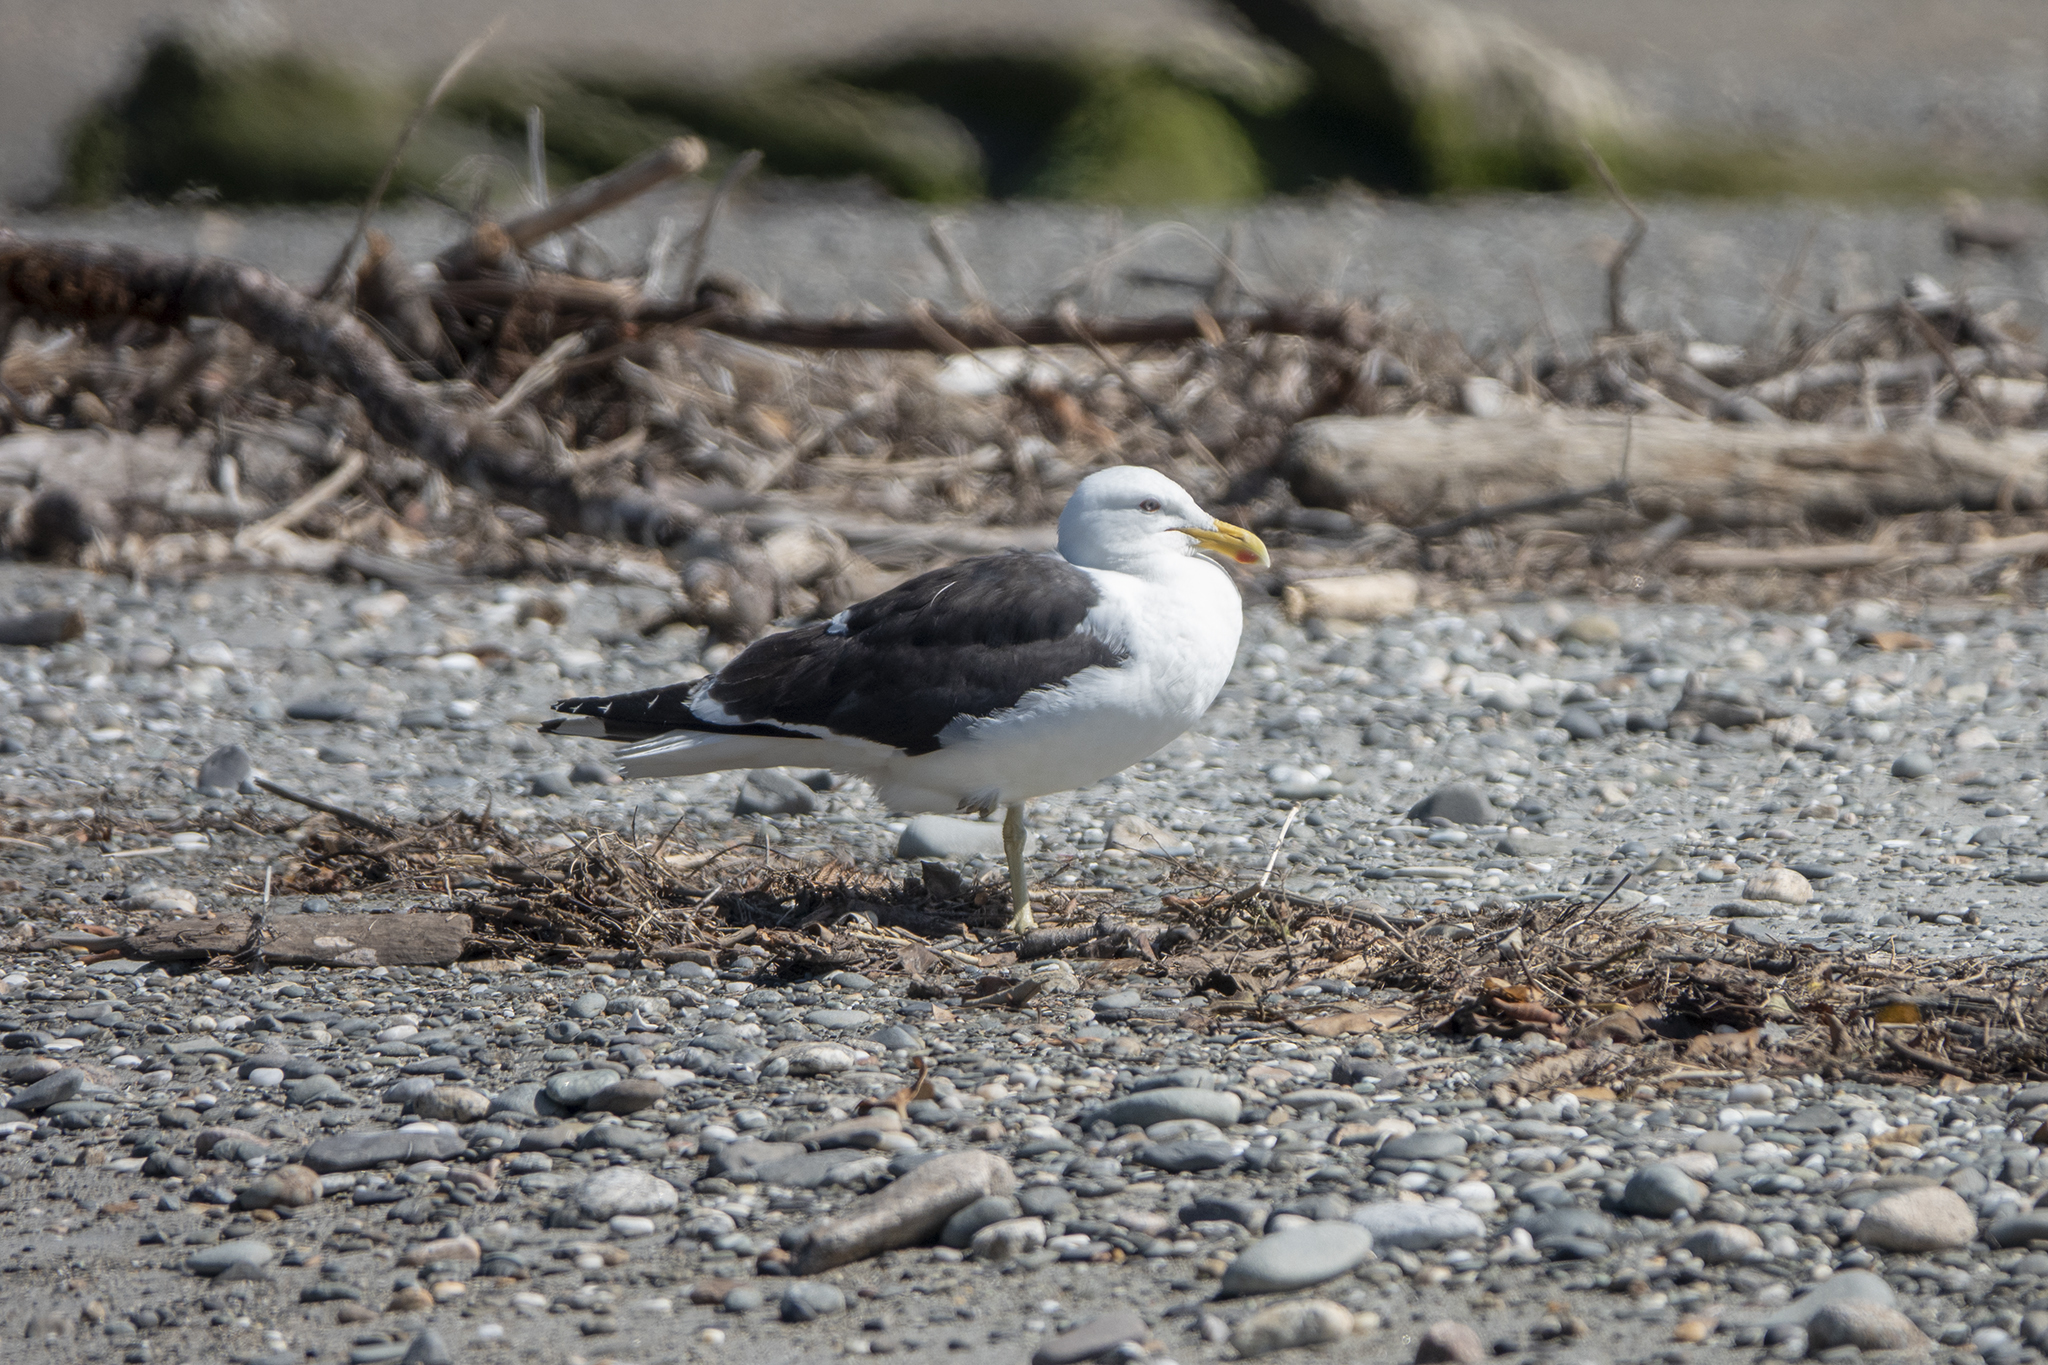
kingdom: Animalia
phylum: Chordata
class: Aves
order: Charadriiformes
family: Laridae
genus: Larus
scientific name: Larus dominicanus
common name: Kelp gull
